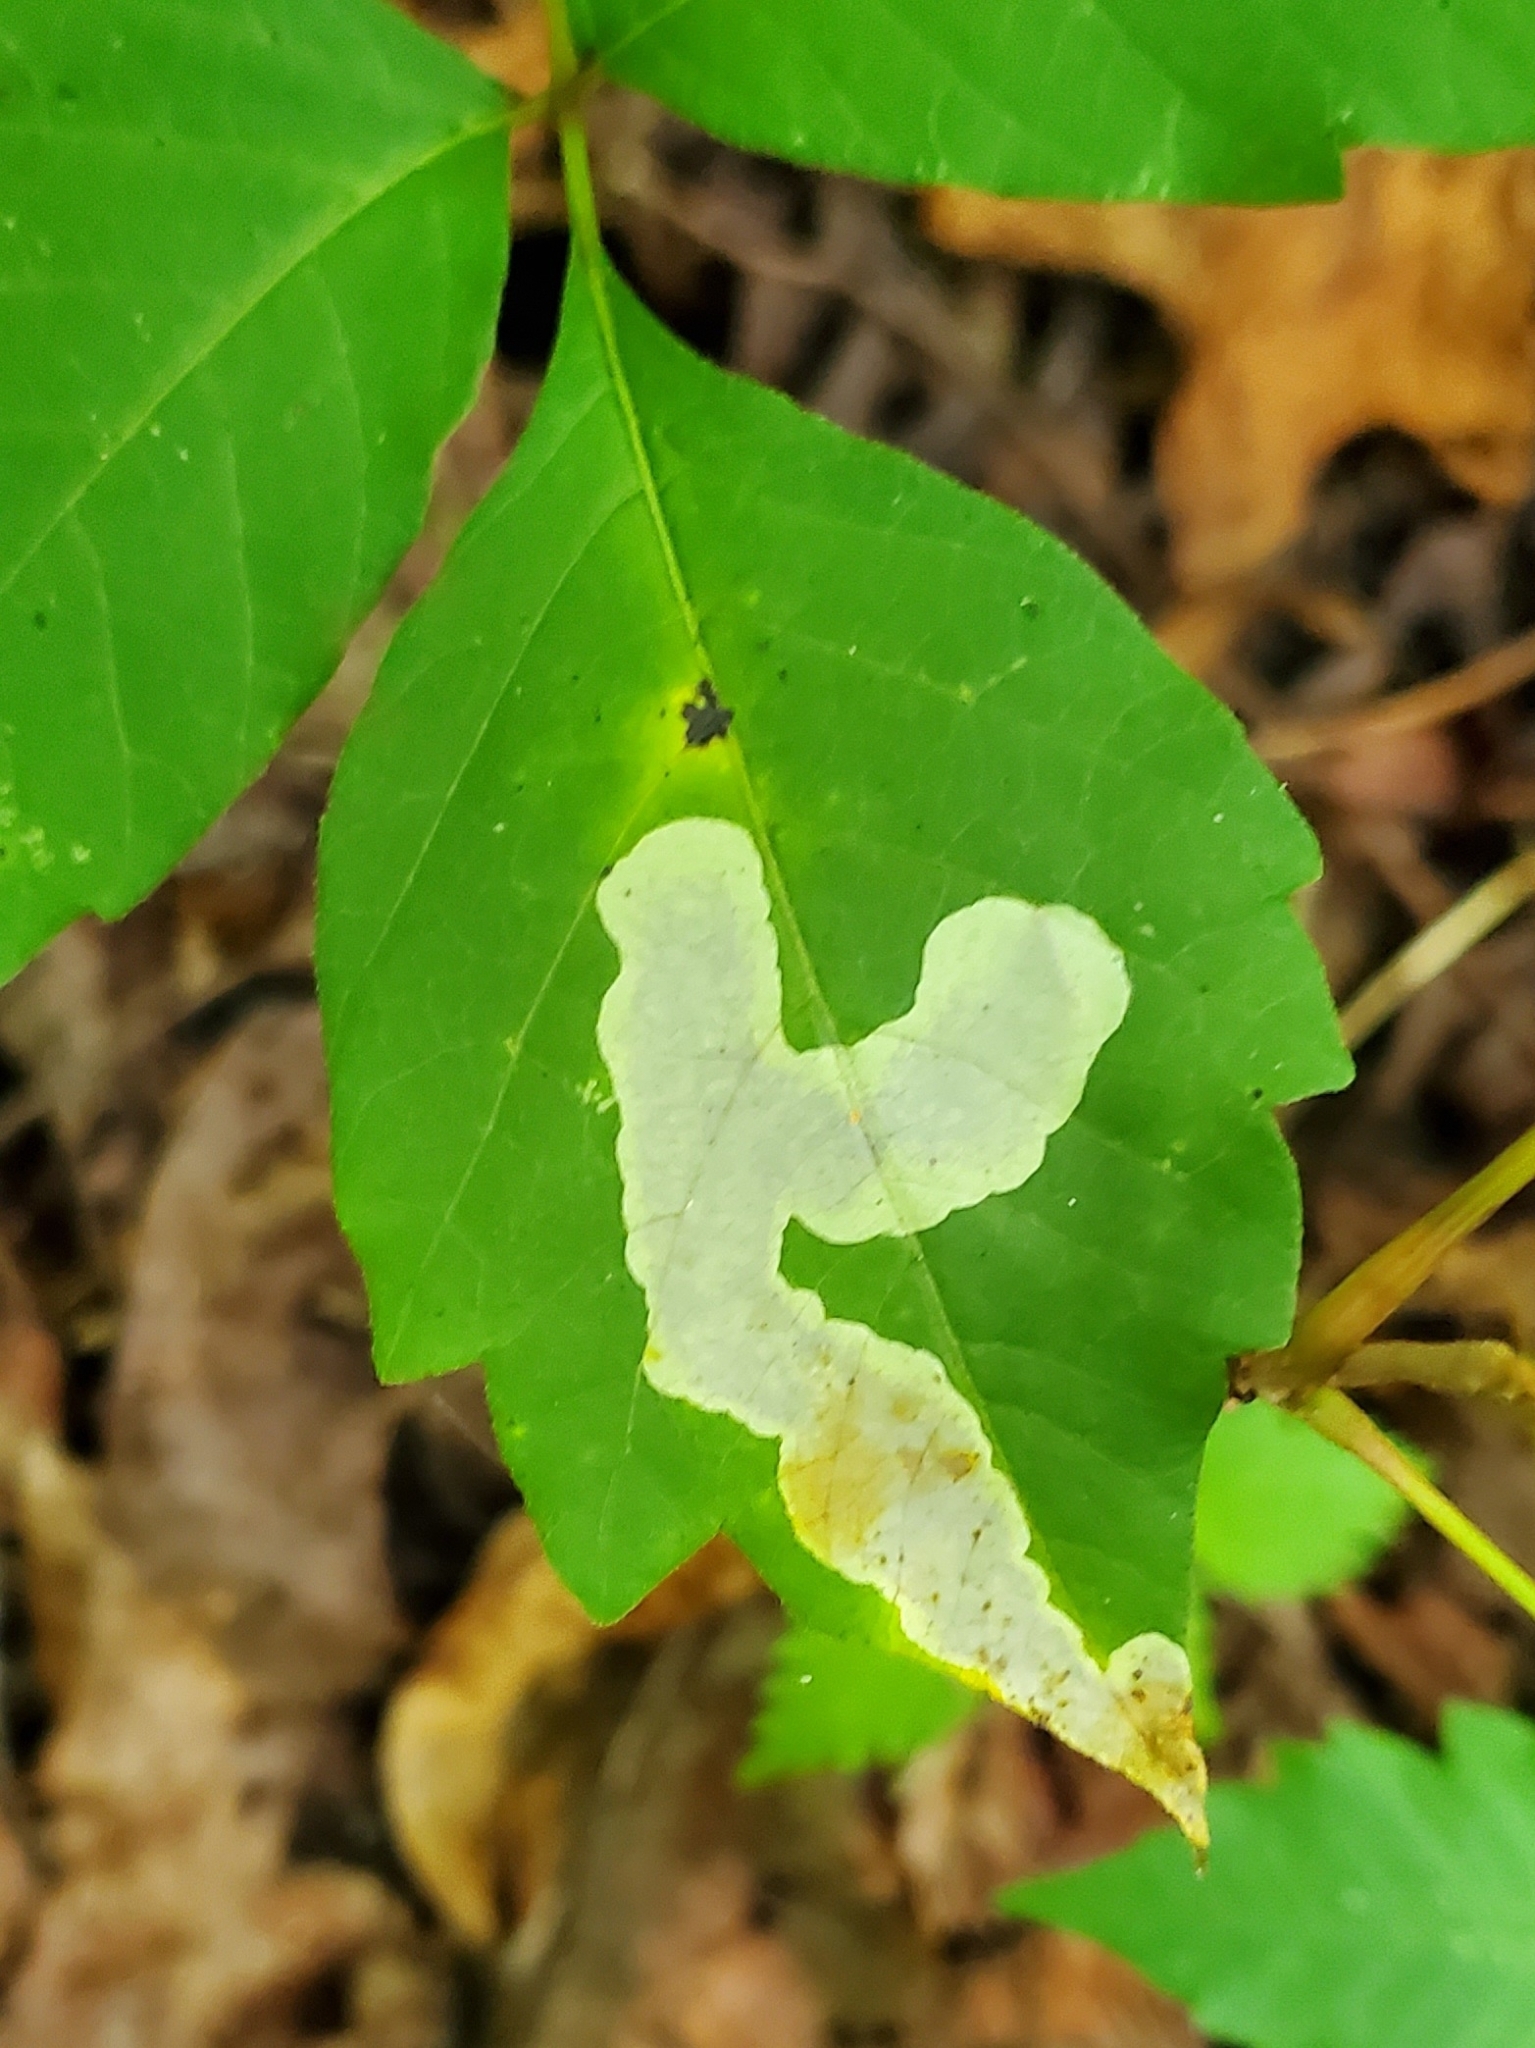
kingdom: Animalia
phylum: Arthropoda
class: Insecta
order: Lepidoptera
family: Gracillariidae
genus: Cameraria
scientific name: Cameraria guttifinitella
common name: Poison ivy leaf-miner moth
